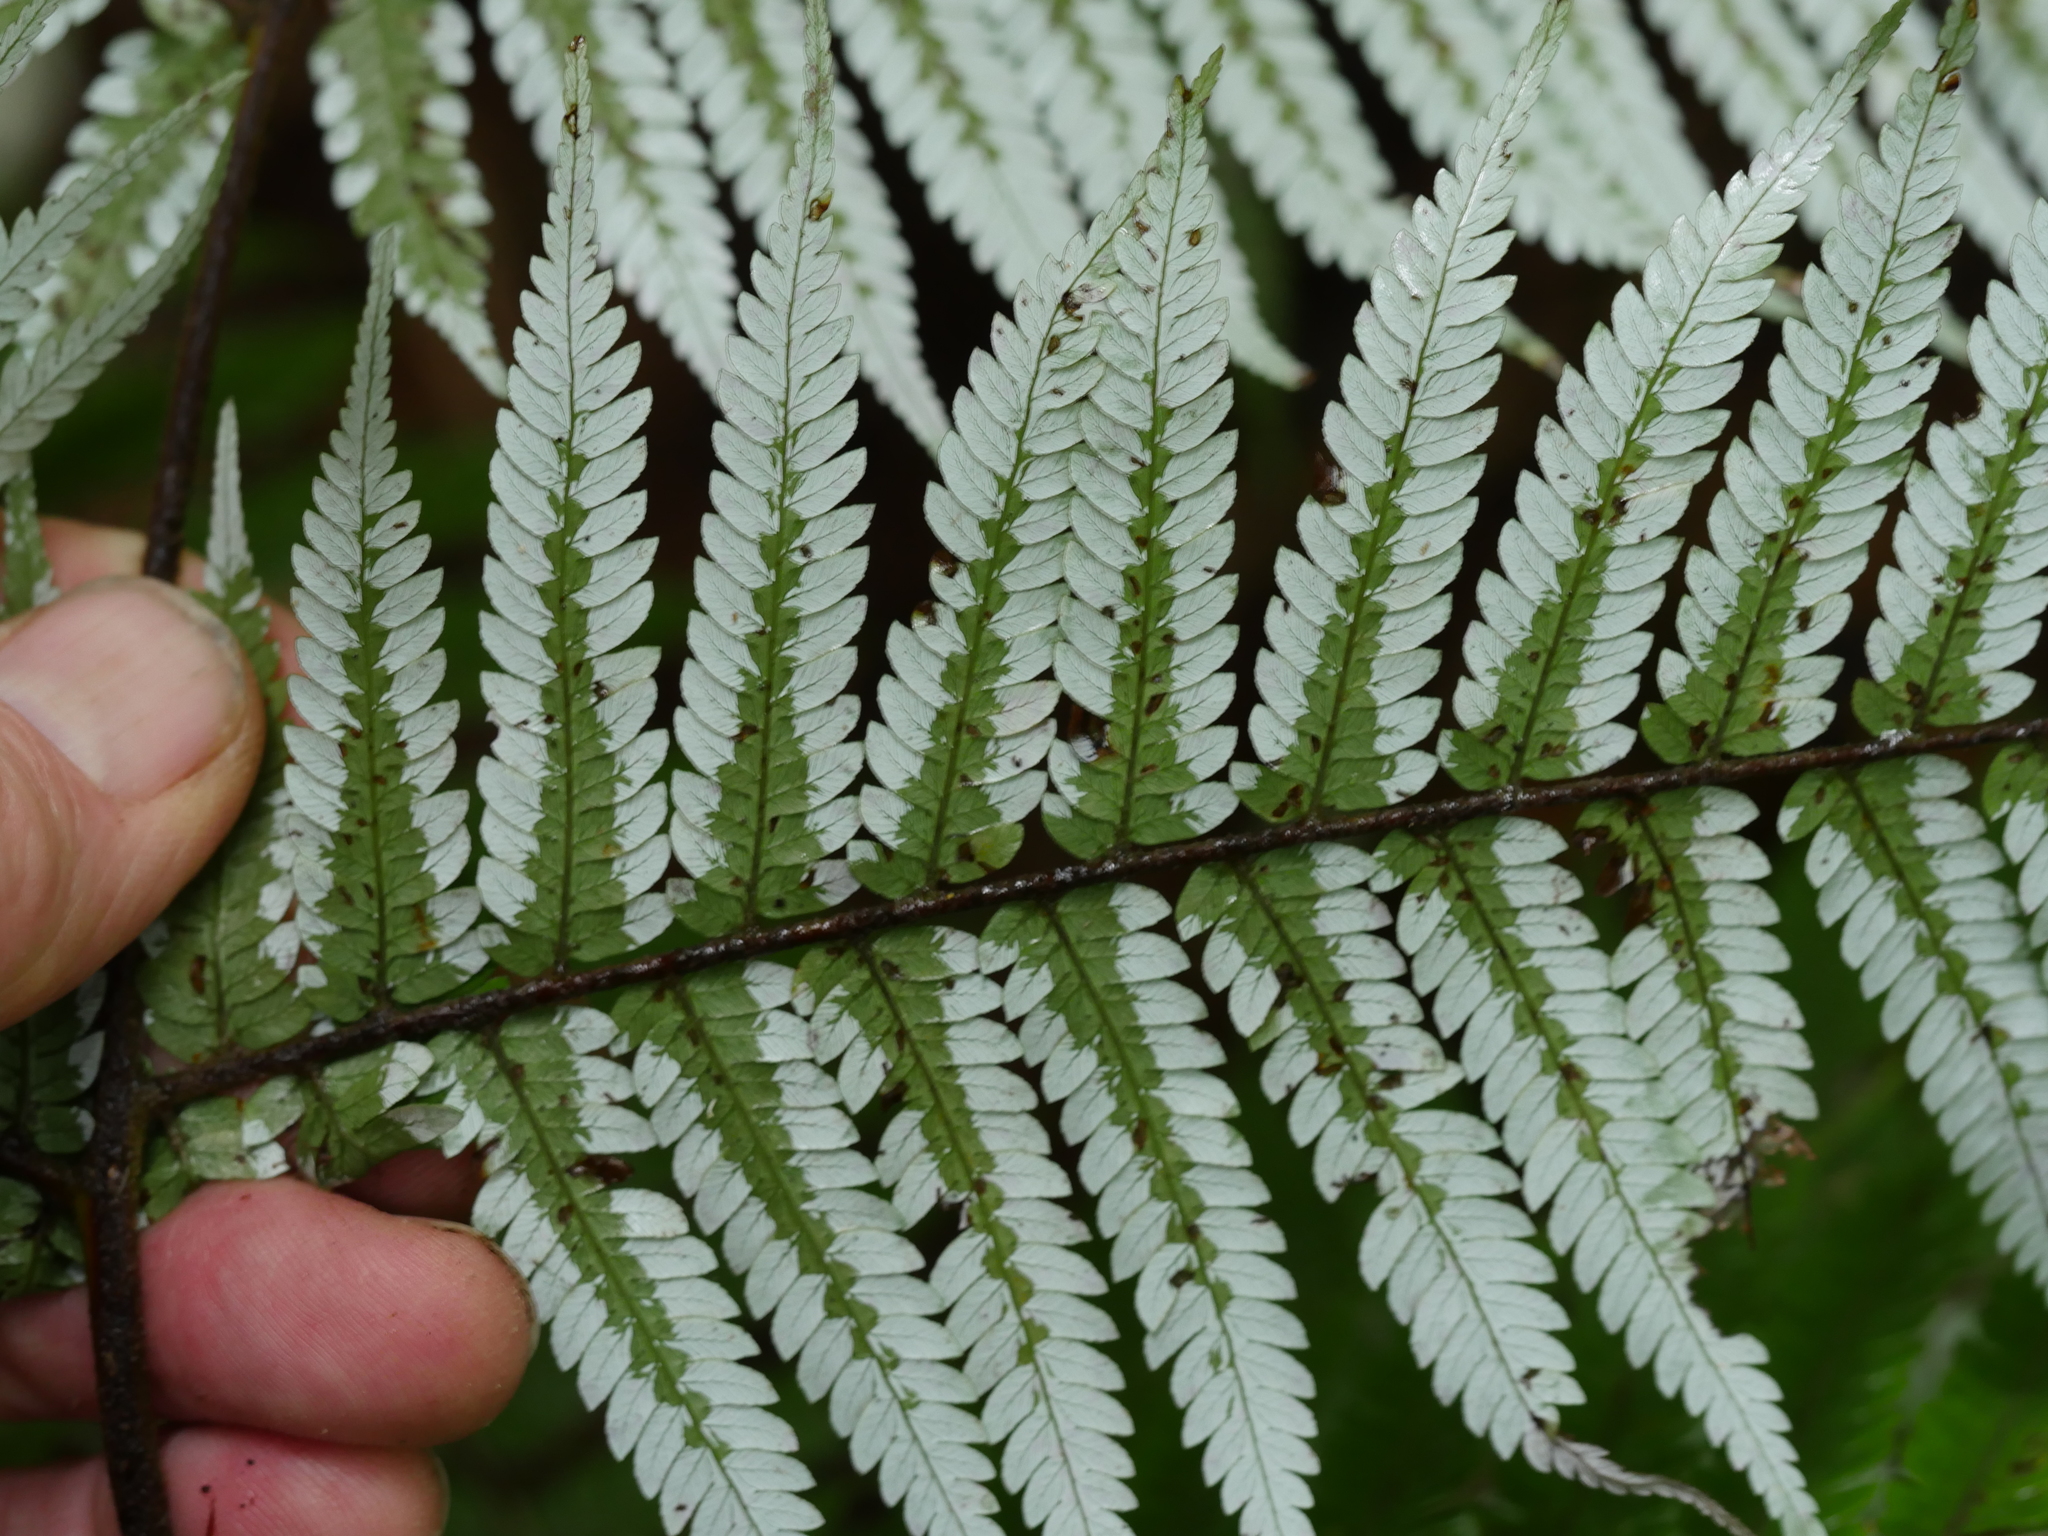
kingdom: Plantae
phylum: Tracheophyta
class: Polypodiopsida
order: Cyatheales
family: Cyatheaceae
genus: Alsophila
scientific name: Alsophila dealbata
